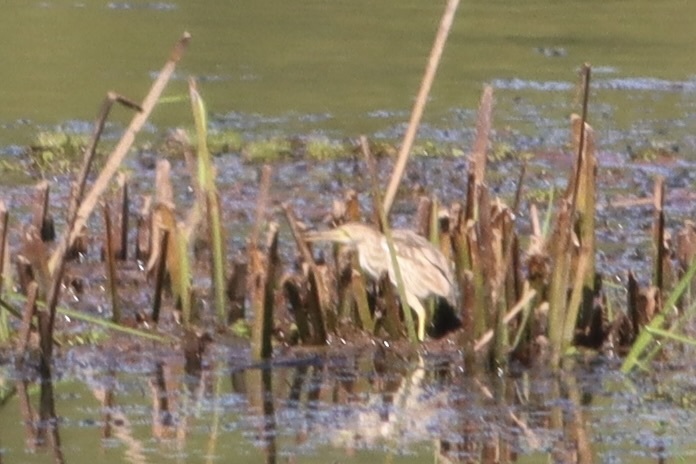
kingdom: Animalia
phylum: Chordata
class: Aves
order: Pelecaniformes
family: Ardeidae
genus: Ixobrychus
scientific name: Ixobrychus sinensis
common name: Yellow bittern
